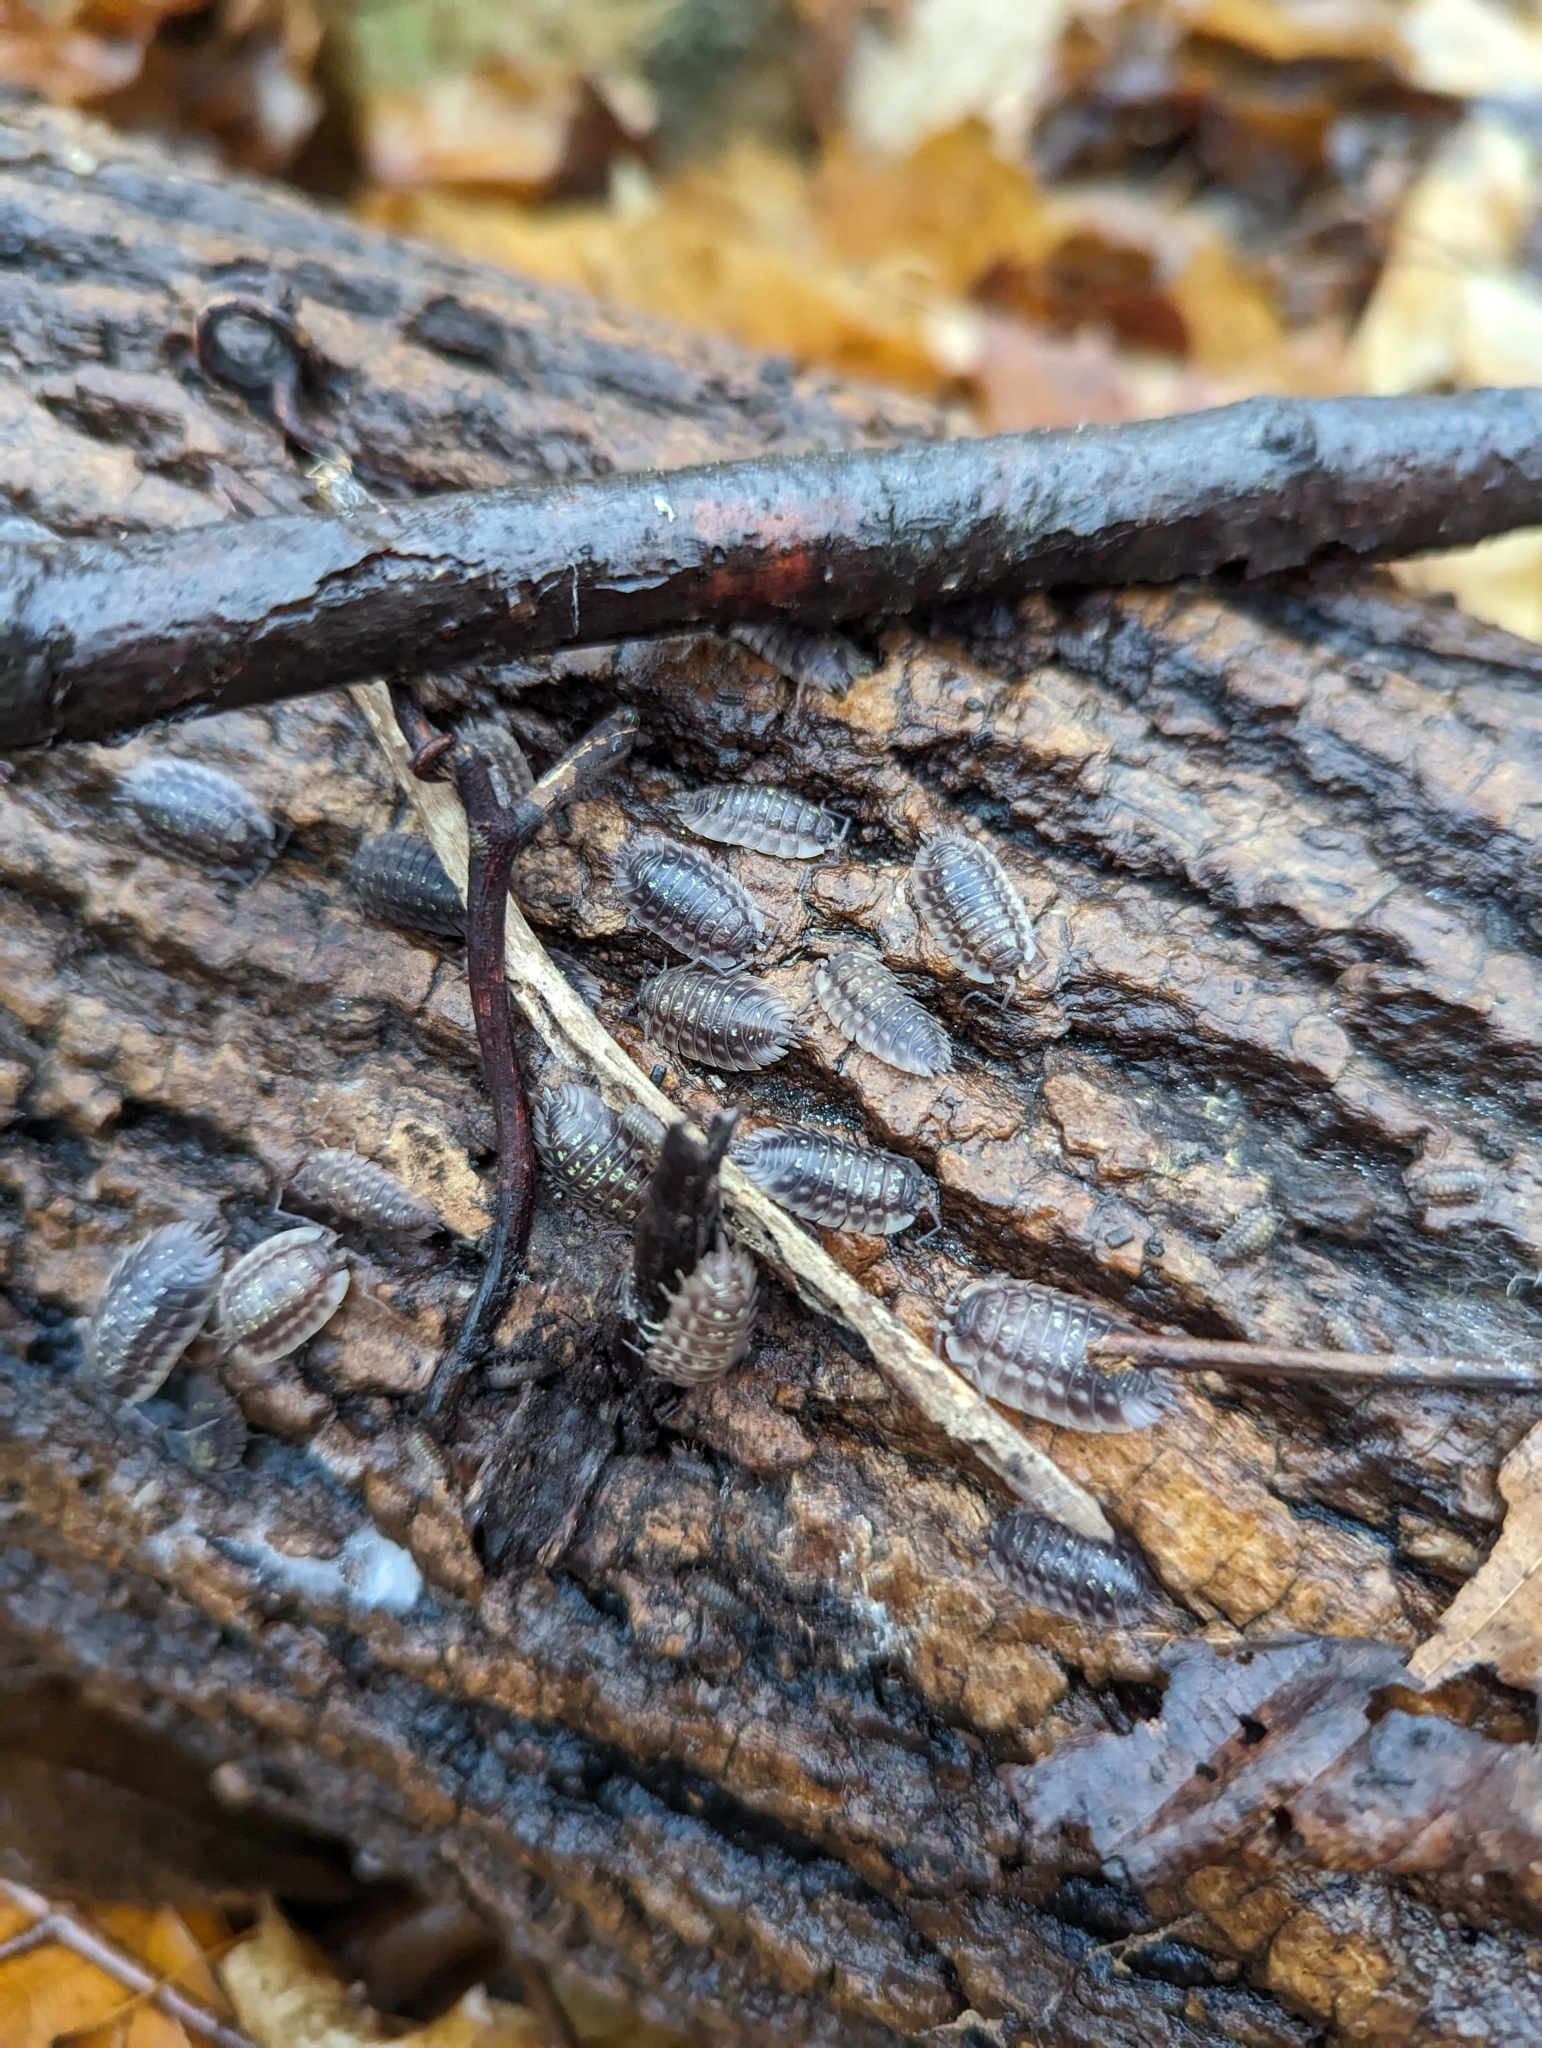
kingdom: Animalia
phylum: Arthropoda
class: Malacostraca
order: Isopoda
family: Oniscidae
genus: Oniscus
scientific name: Oniscus asellus
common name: Common shiny woodlouse
